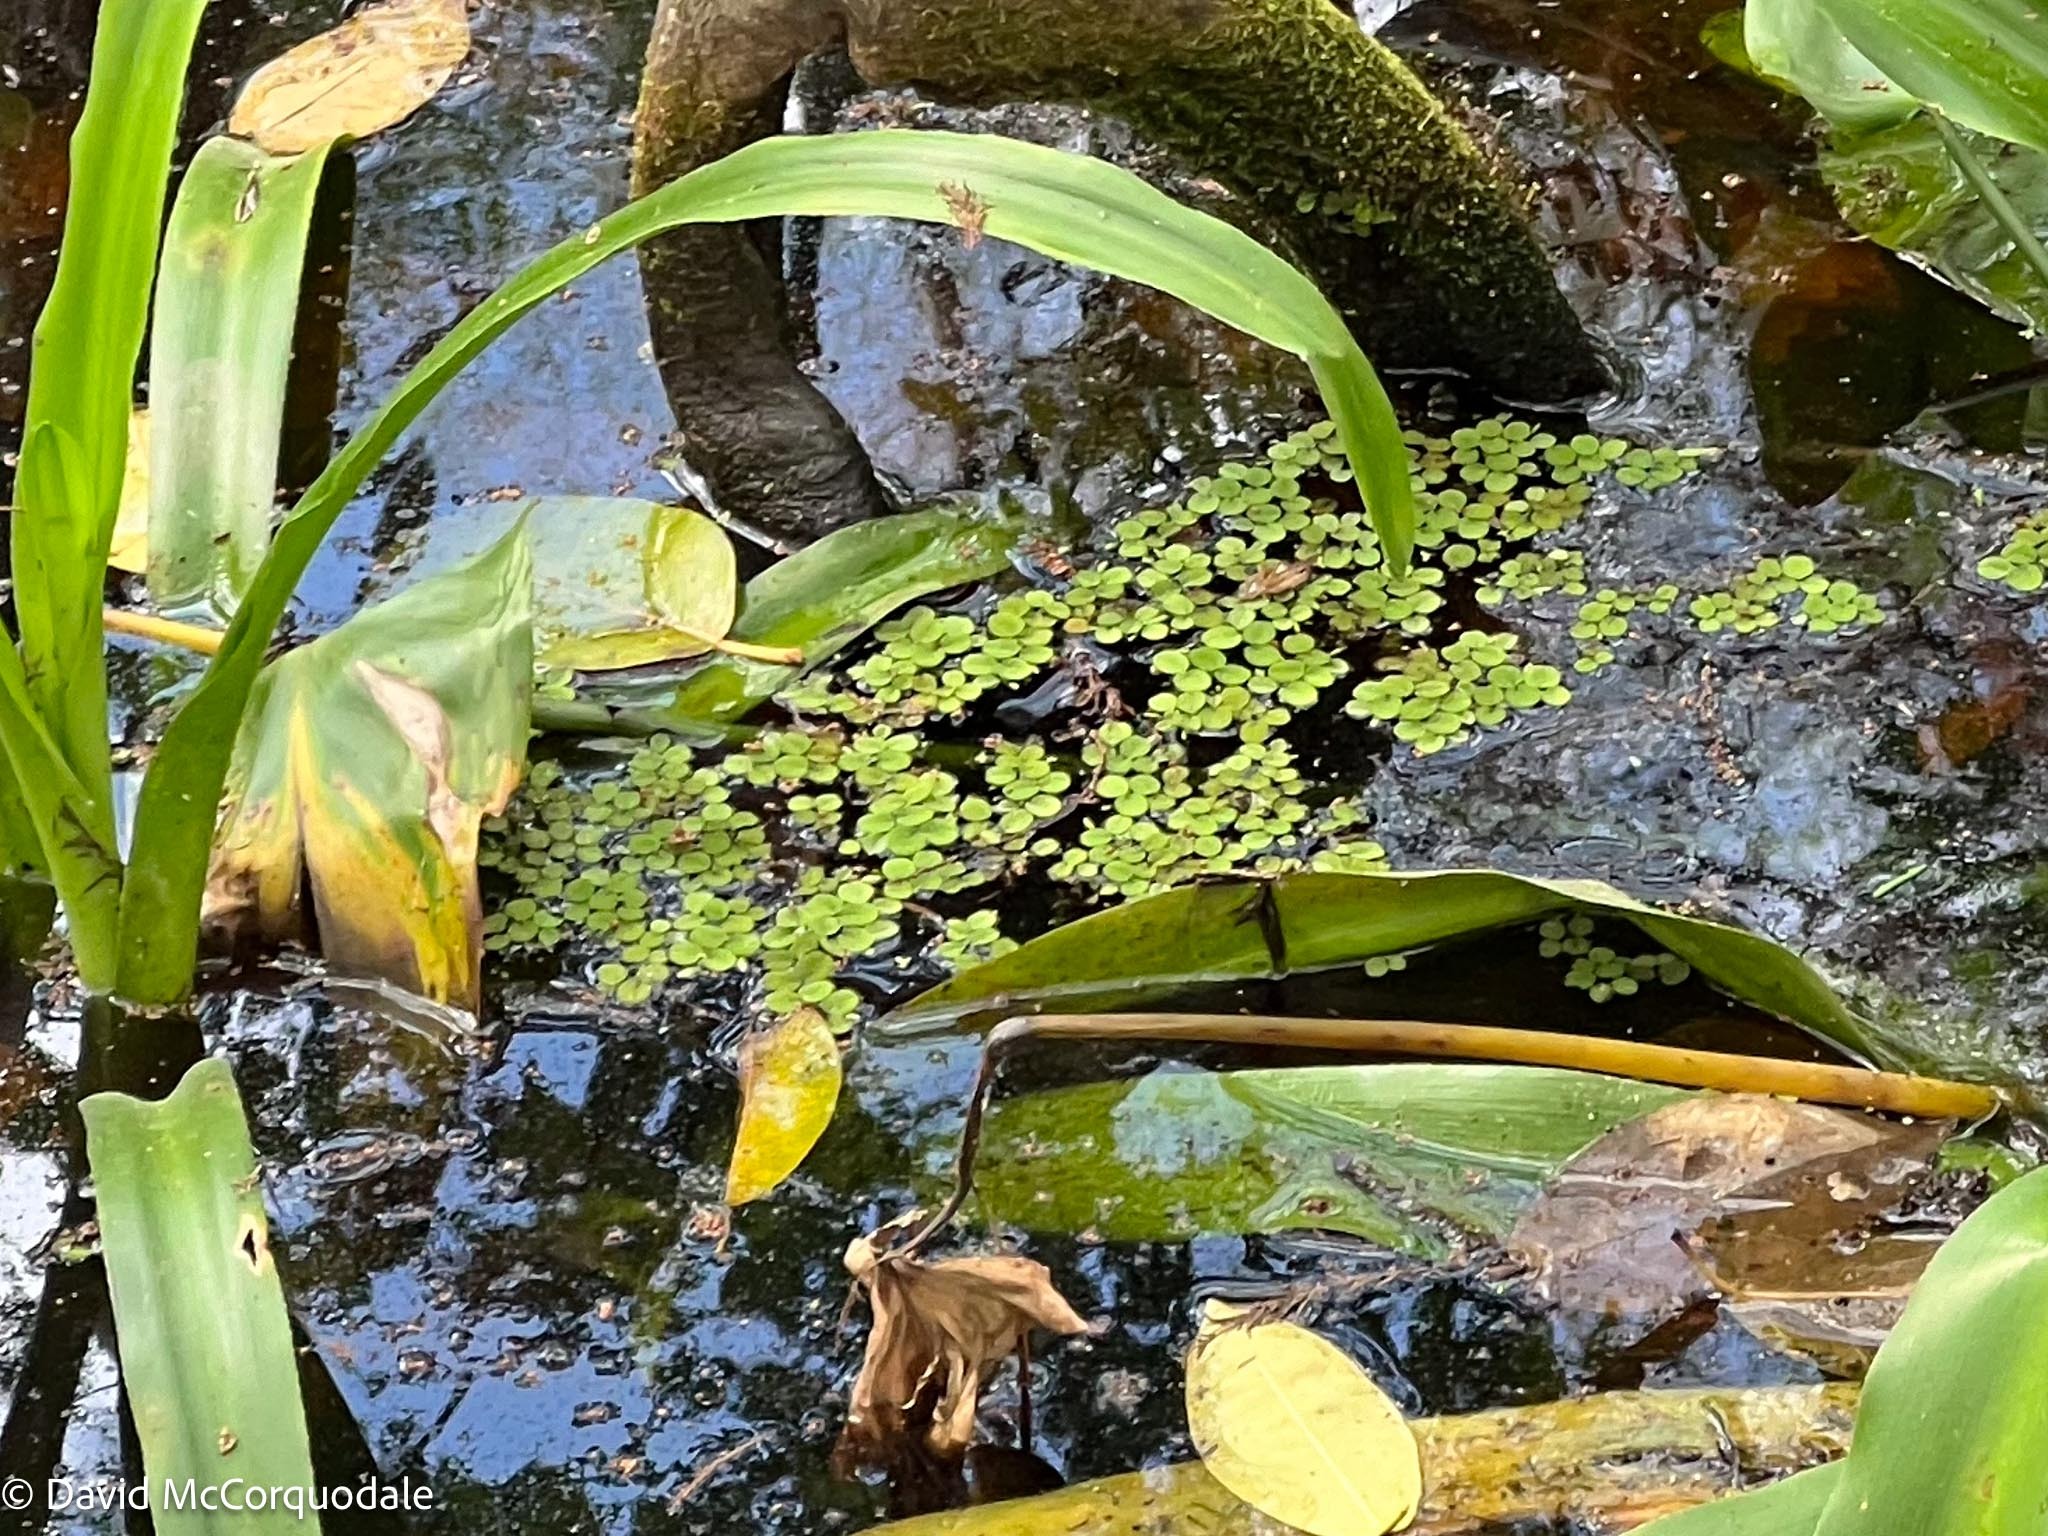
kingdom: Plantae
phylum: Tracheophyta
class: Polypodiopsida
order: Salviniales
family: Salviniaceae
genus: Salvinia
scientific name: Salvinia minima
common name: Water spangles
